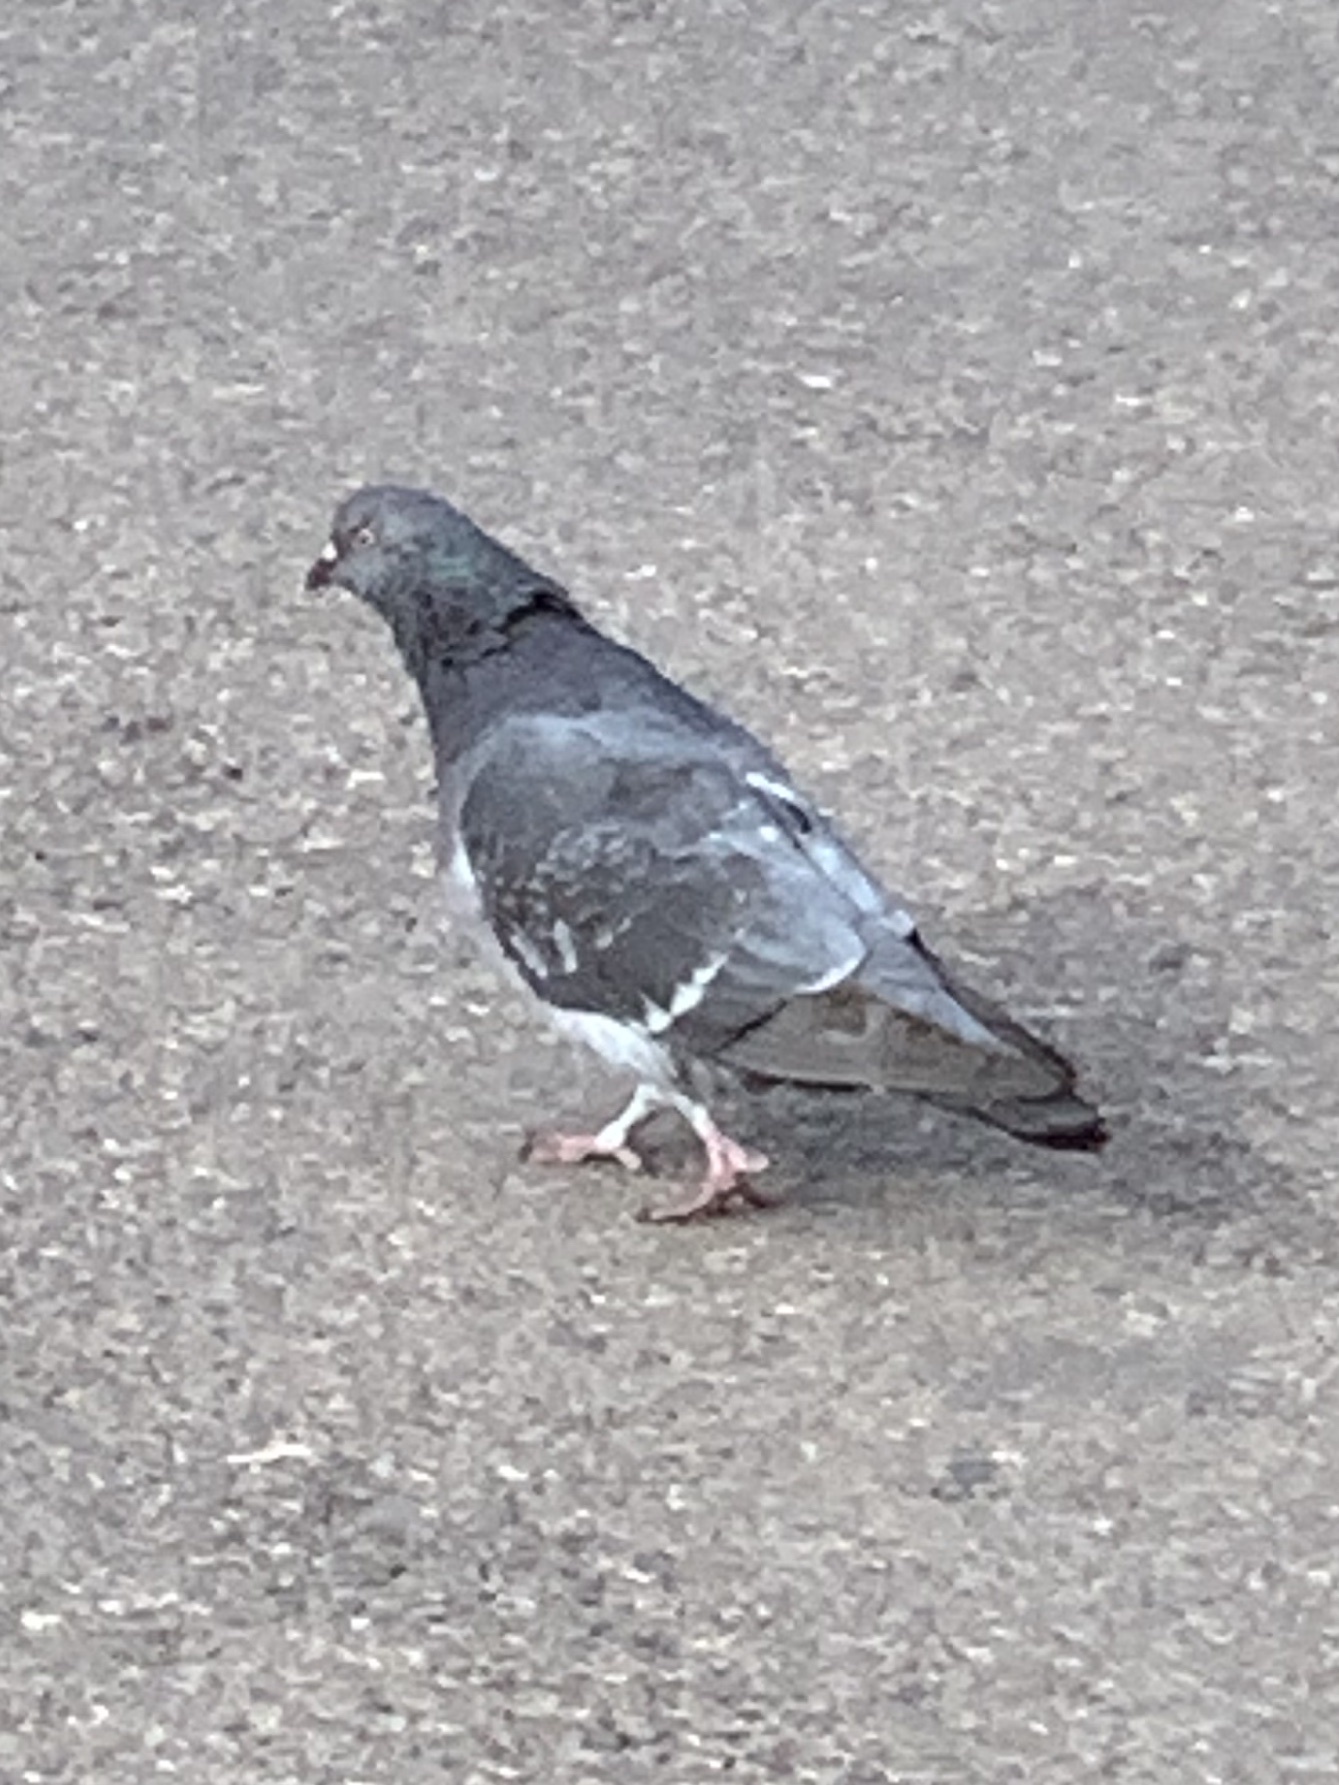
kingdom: Animalia
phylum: Chordata
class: Aves
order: Columbiformes
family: Columbidae
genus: Columba
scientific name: Columba livia
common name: Rock pigeon
